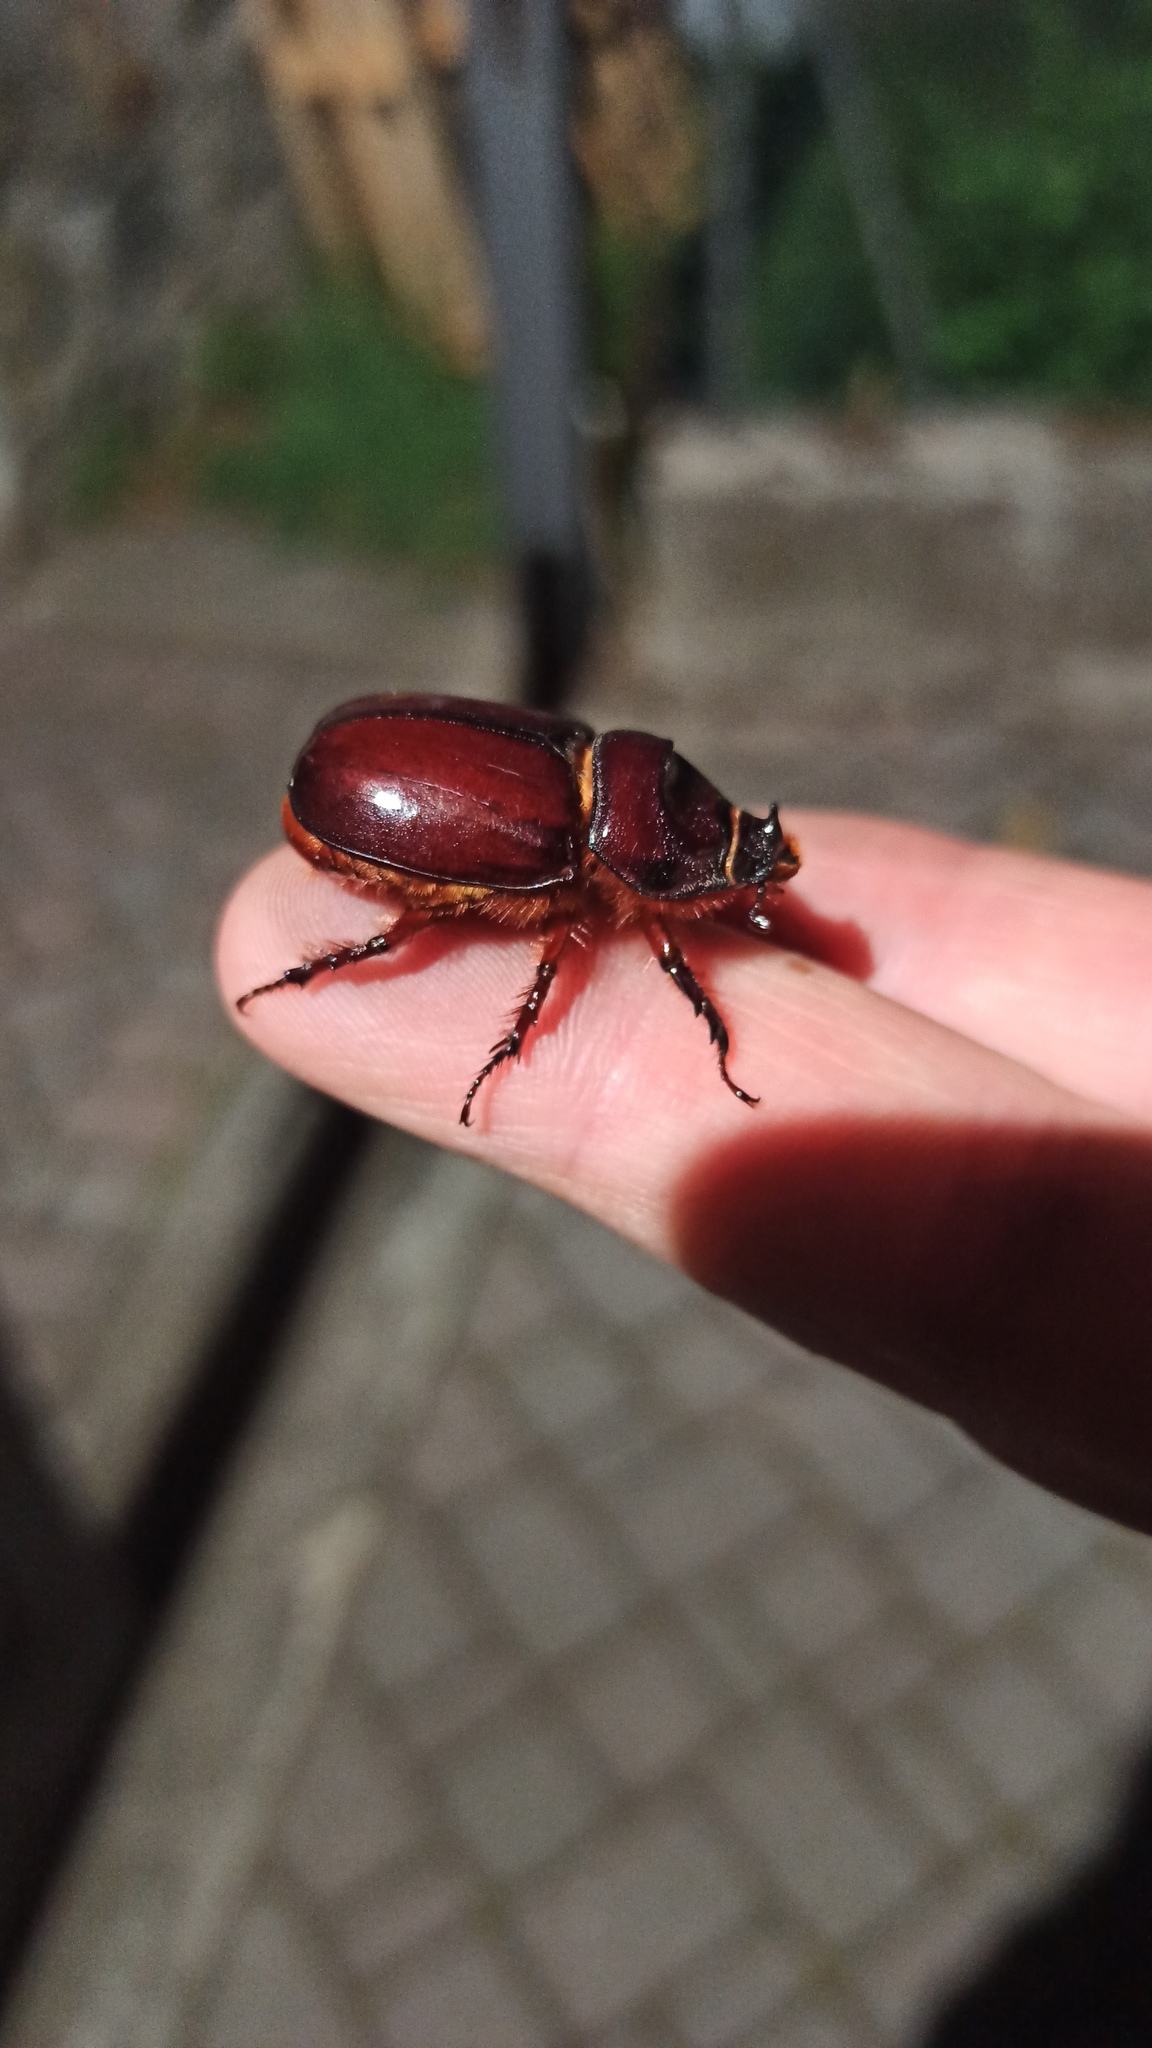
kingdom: Animalia
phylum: Arthropoda
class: Insecta
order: Coleoptera
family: Scarabaeidae
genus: Oryctes
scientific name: Oryctes nasicornis
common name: European rhinoceros beetle
